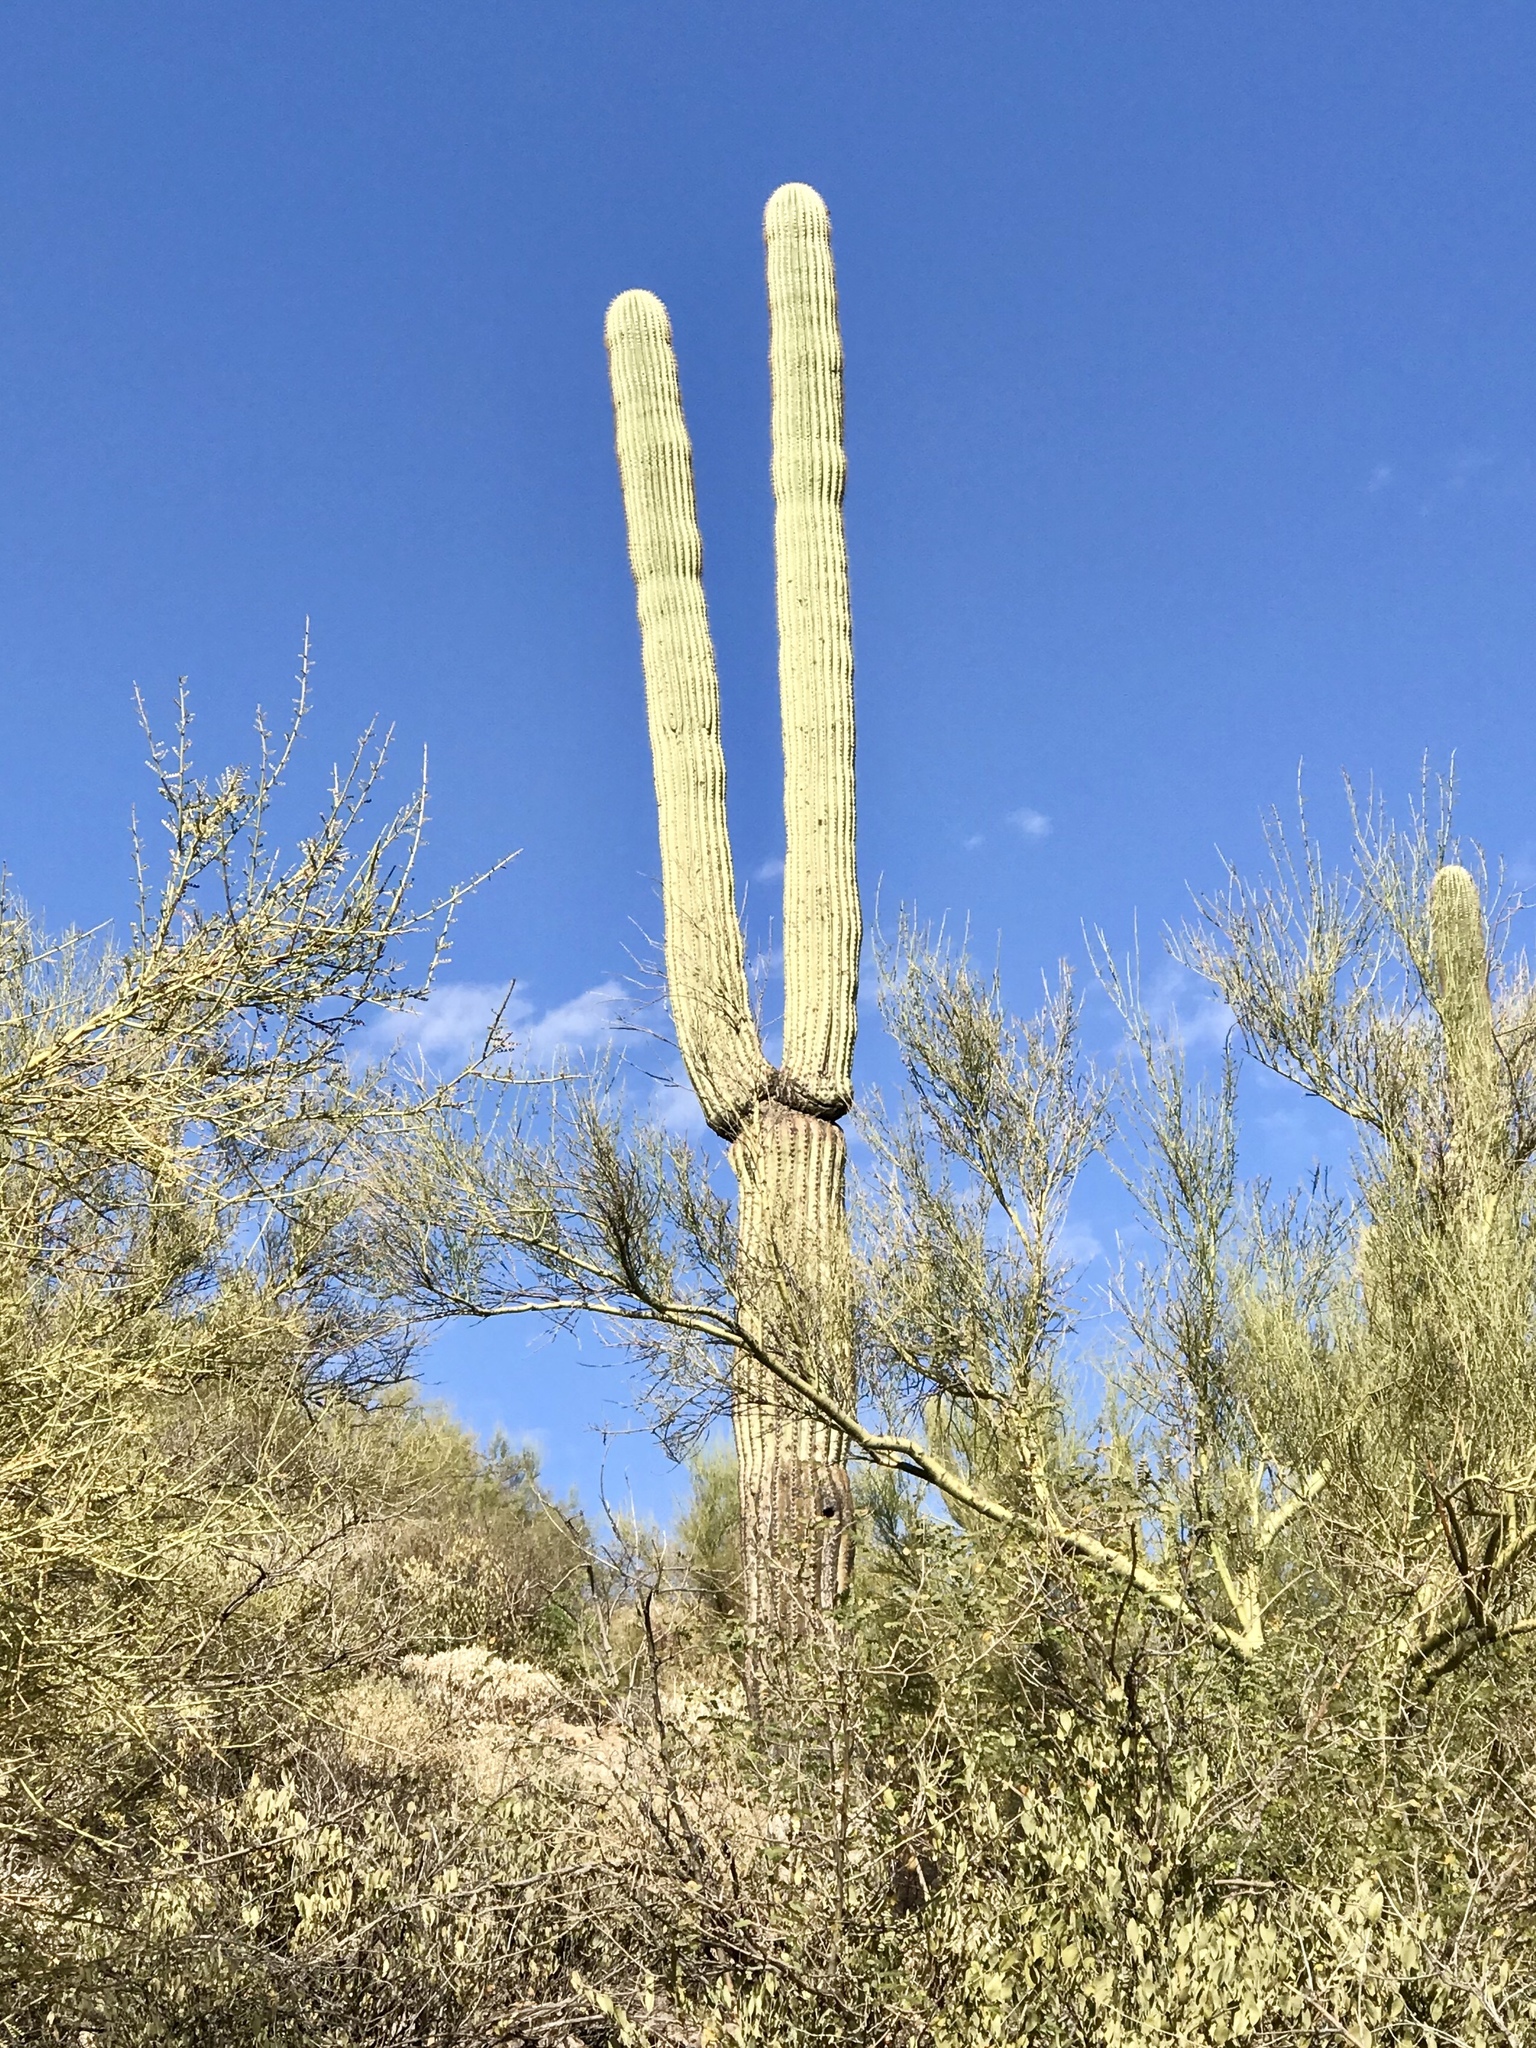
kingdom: Plantae
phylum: Tracheophyta
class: Magnoliopsida
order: Caryophyllales
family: Cactaceae
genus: Carnegiea
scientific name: Carnegiea gigantea
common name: Saguaro
